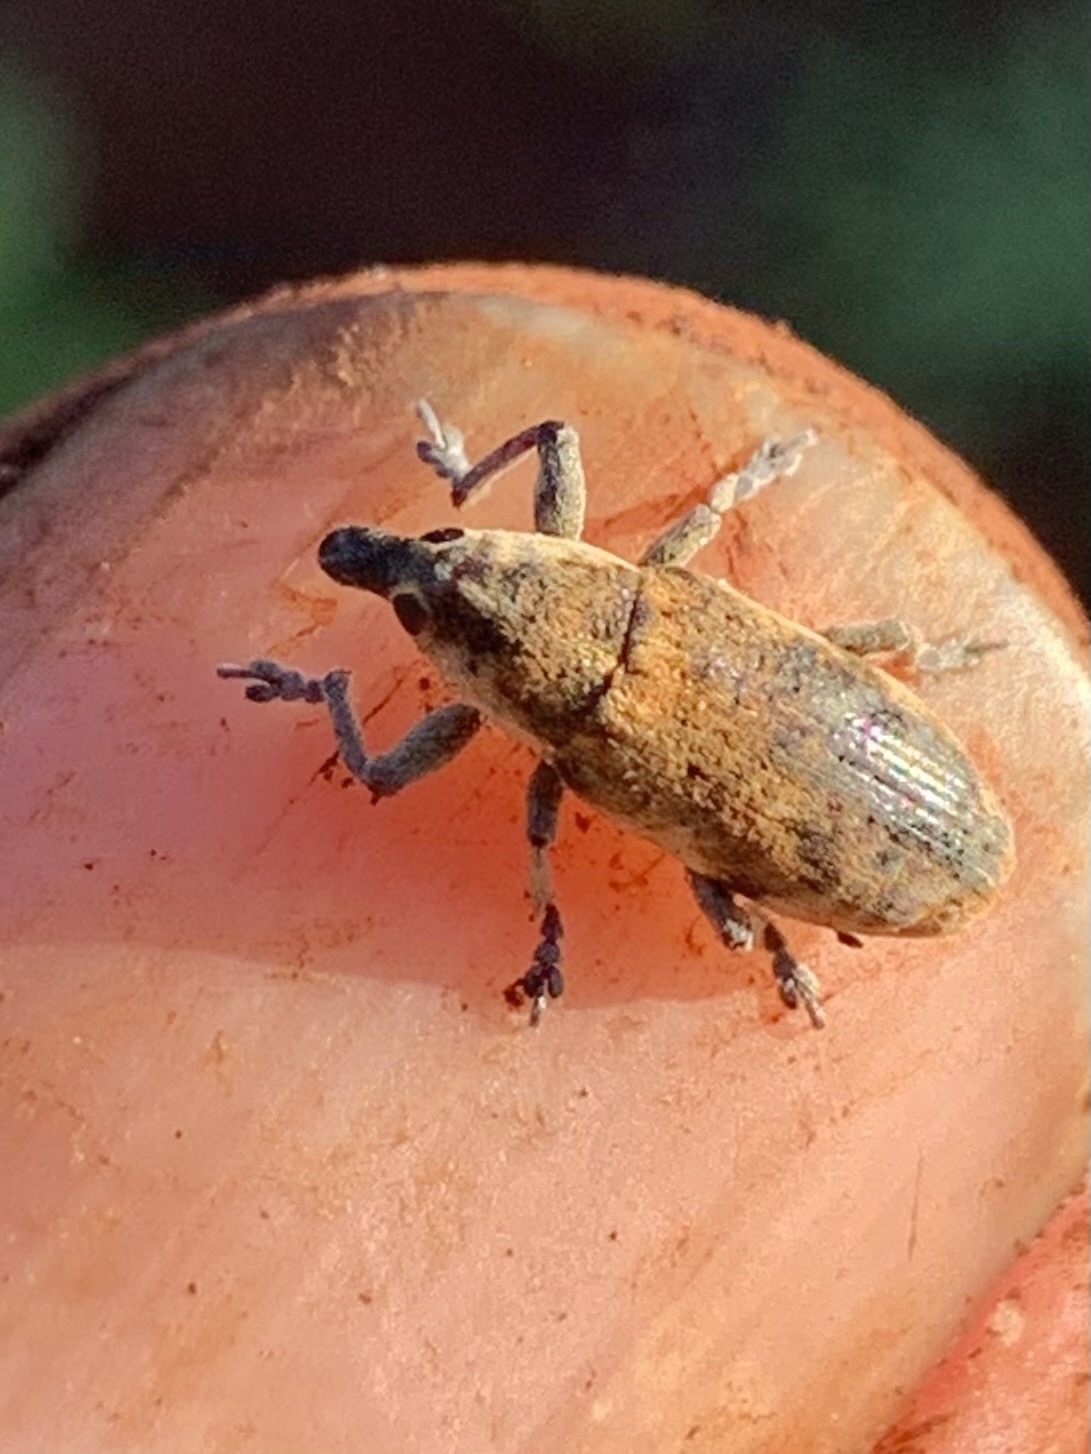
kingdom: Animalia
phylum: Arthropoda
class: Insecta
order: Coleoptera
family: Curculionidae
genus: Hypolixus
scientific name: Hypolixus
